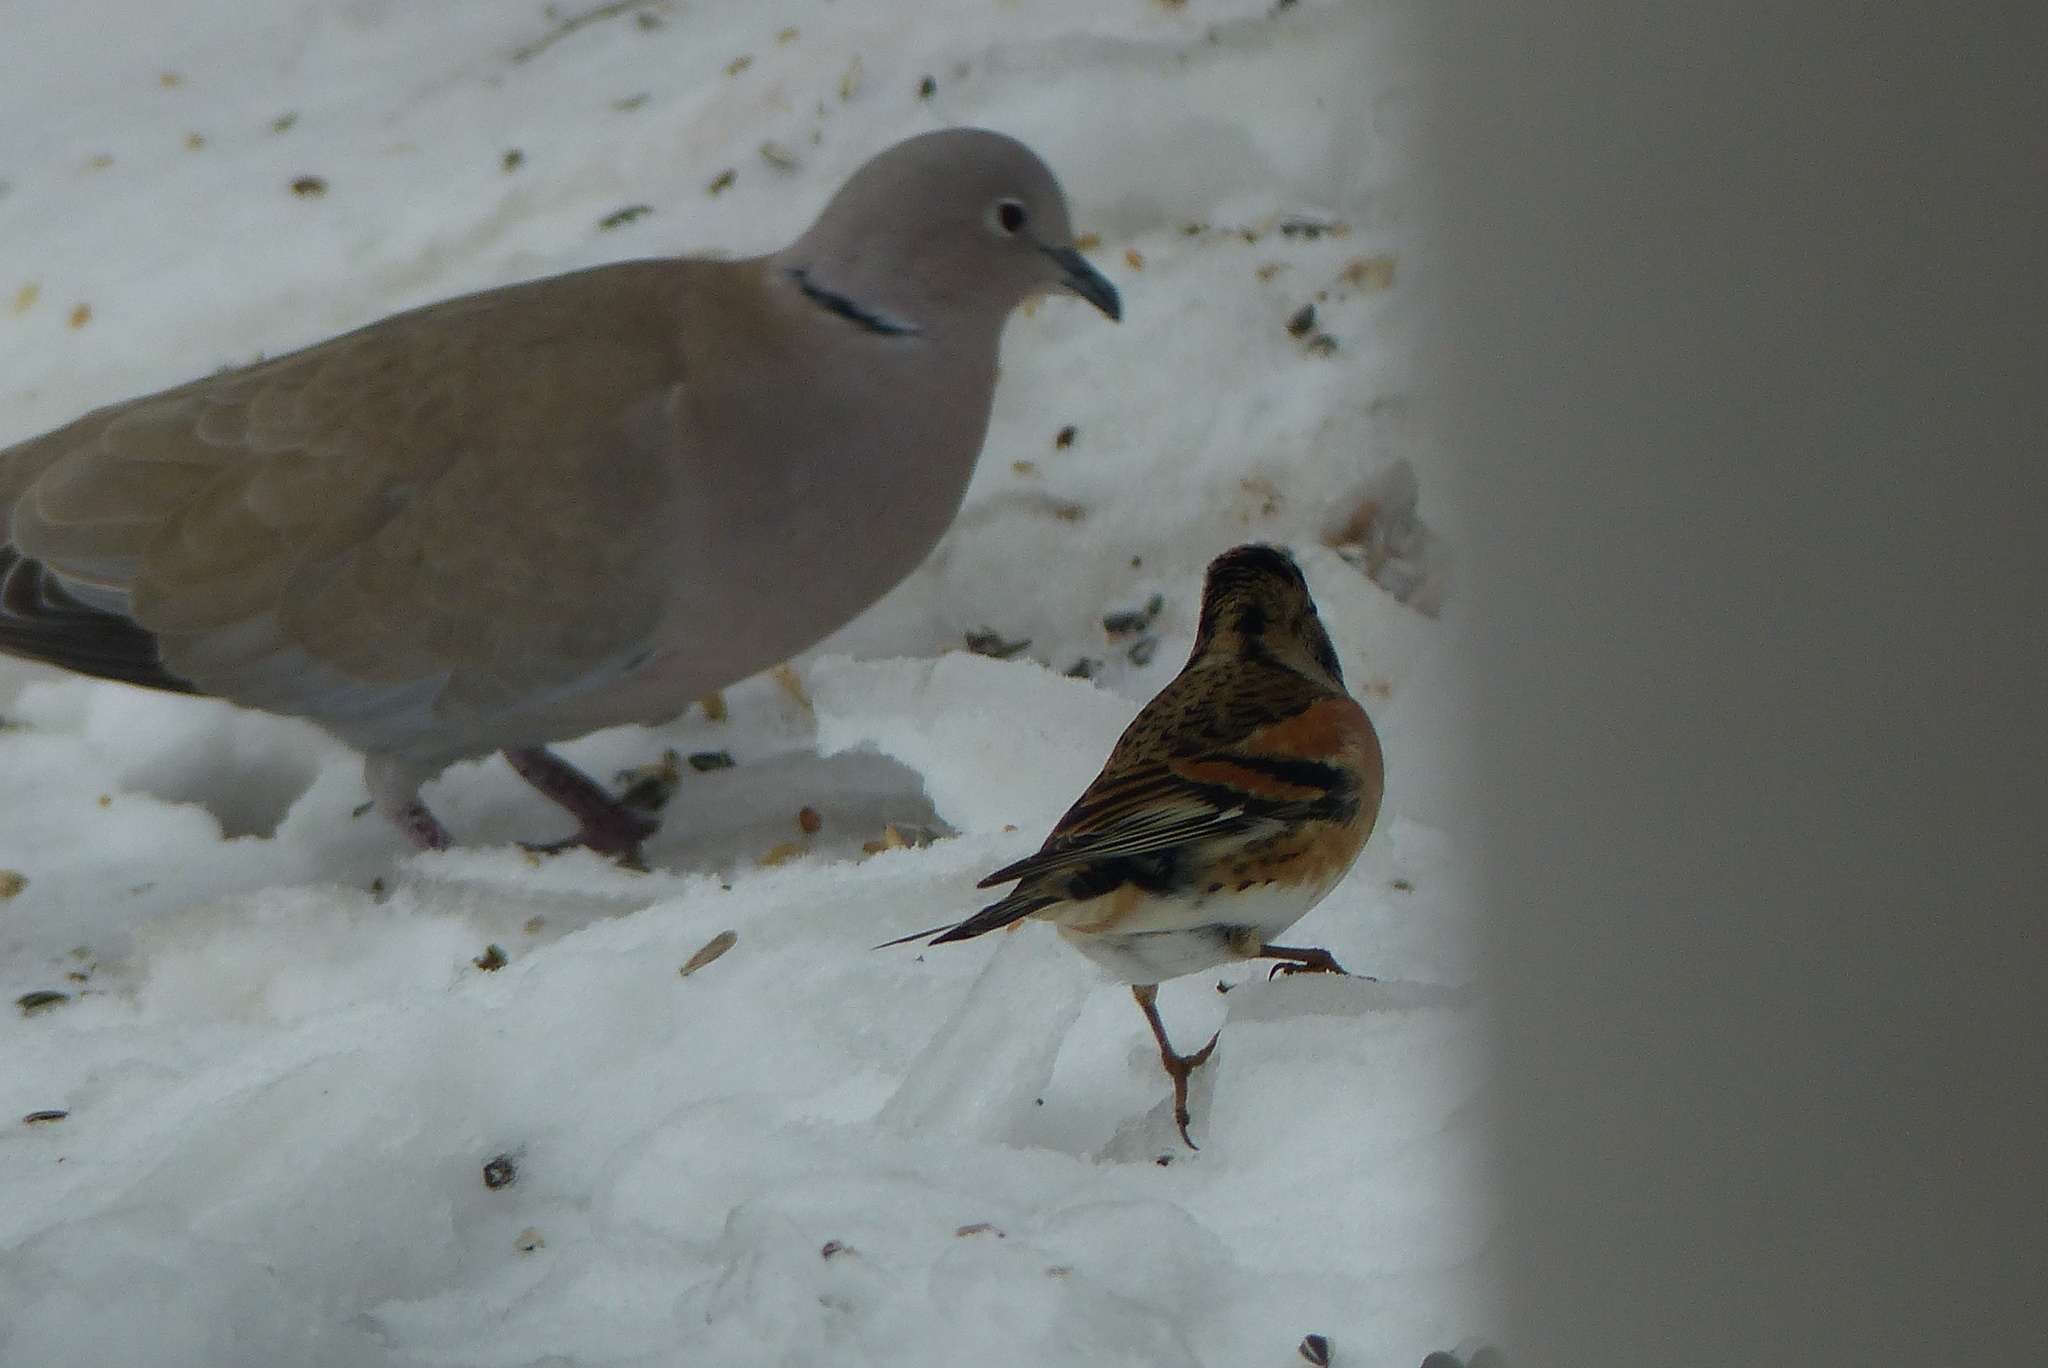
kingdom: Animalia
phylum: Chordata
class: Aves
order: Passeriformes
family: Fringillidae
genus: Fringilla
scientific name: Fringilla montifringilla
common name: Brambling
